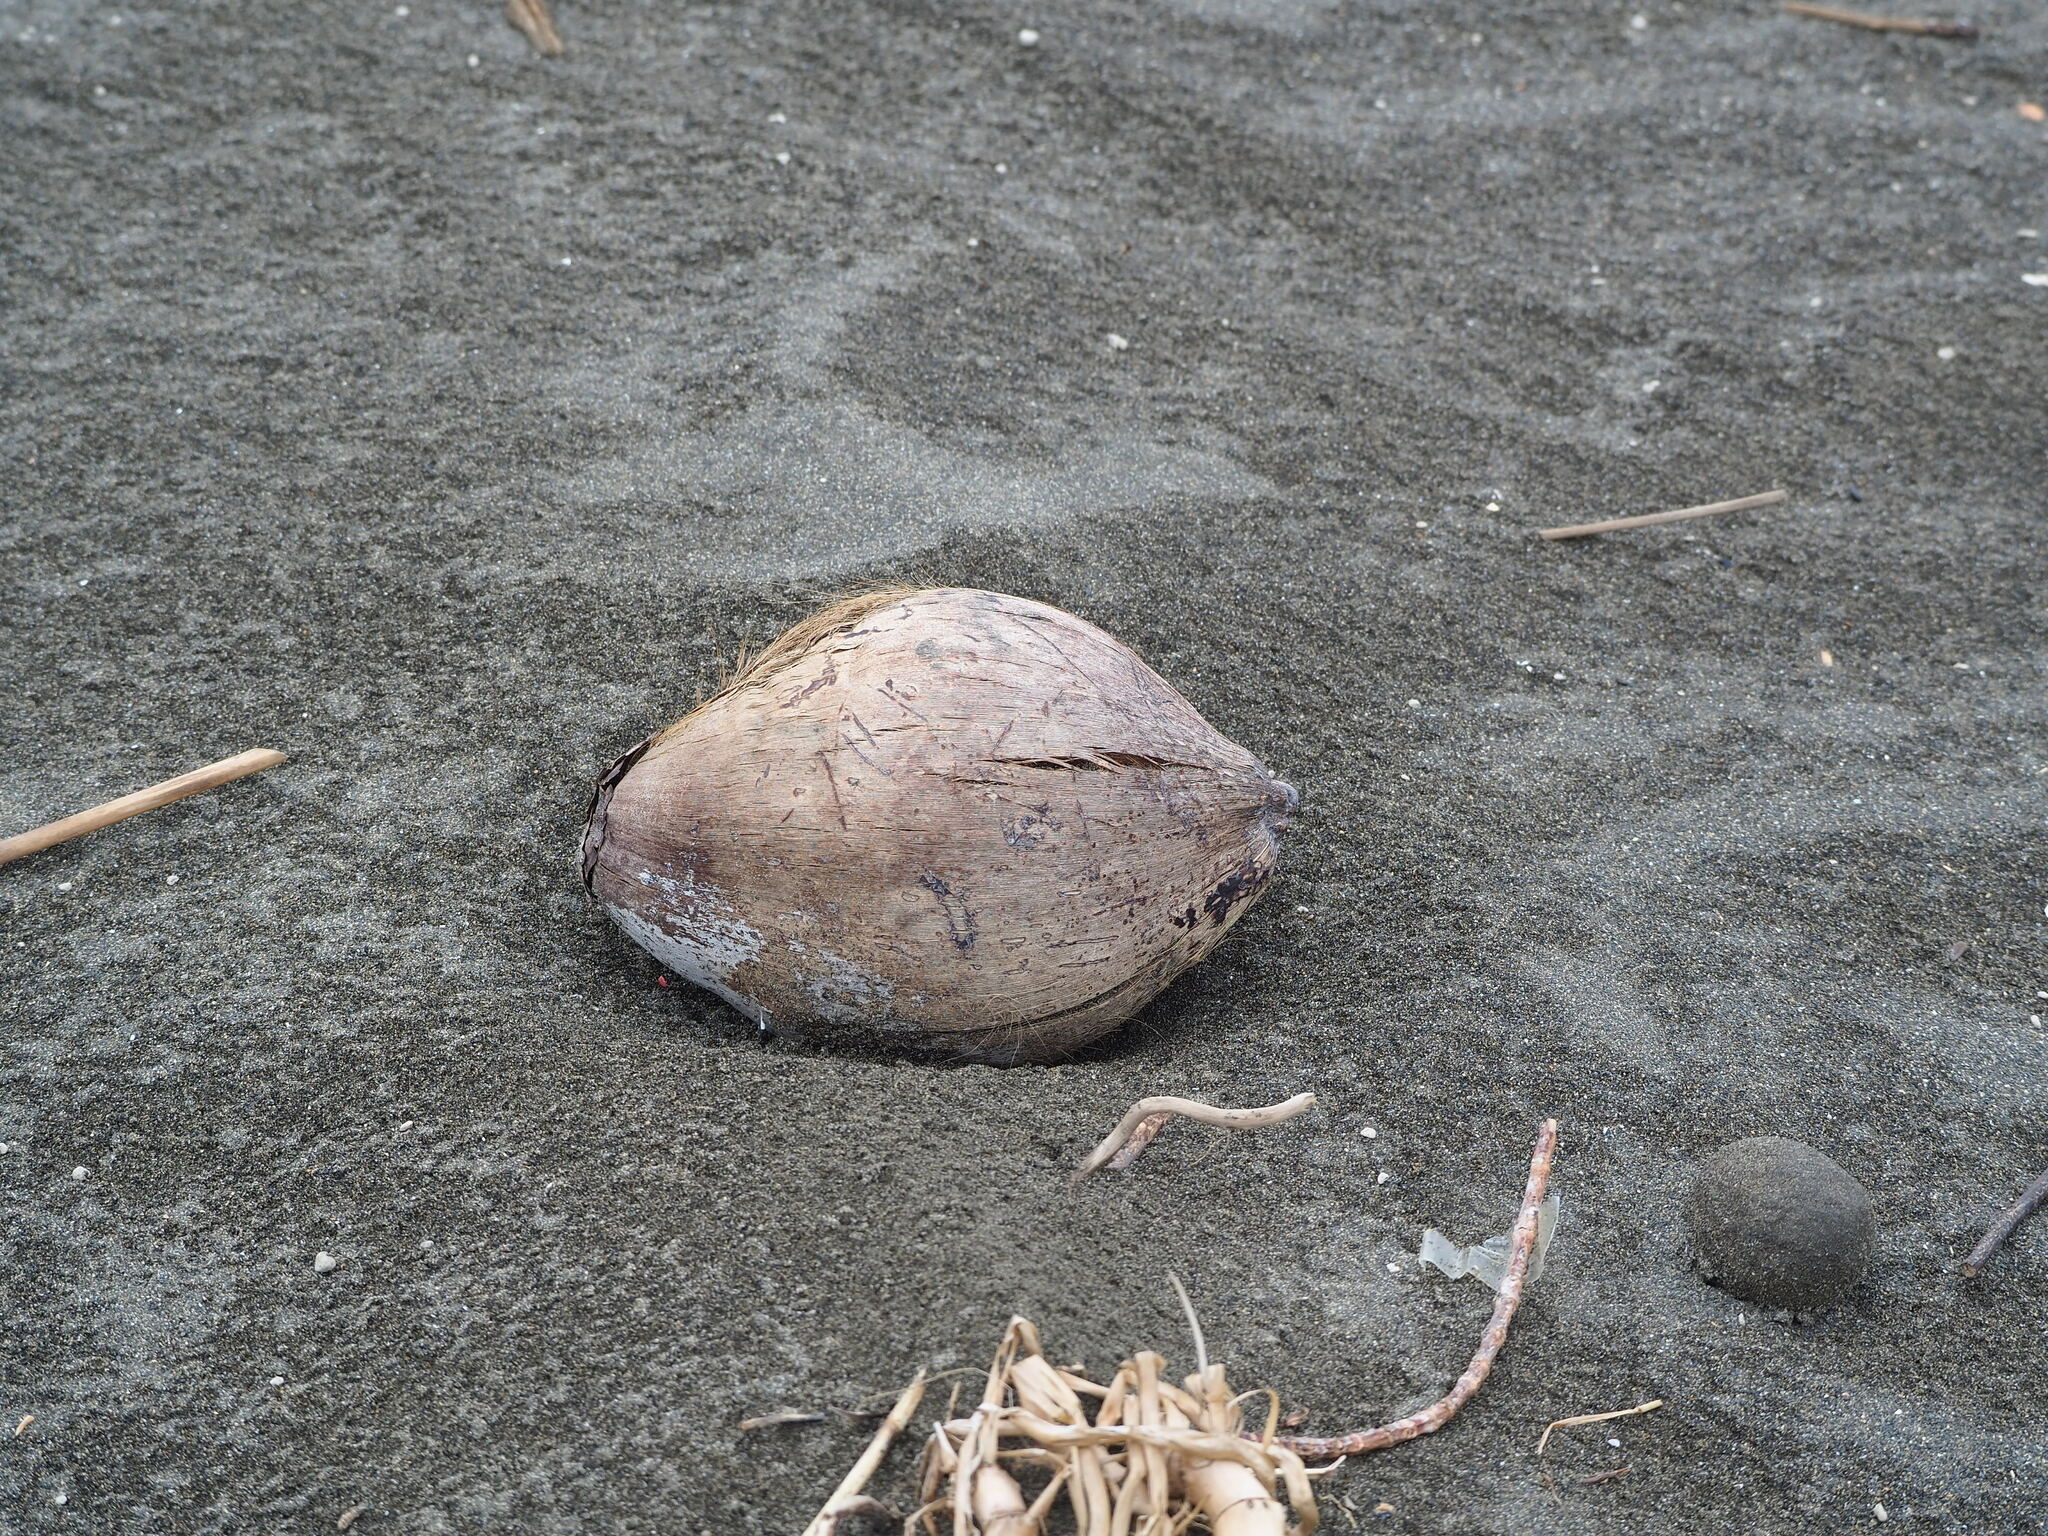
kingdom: Plantae
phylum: Tracheophyta
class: Liliopsida
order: Arecales
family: Arecaceae
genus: Cocos
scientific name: Cocos nucifera
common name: Coconut palm
